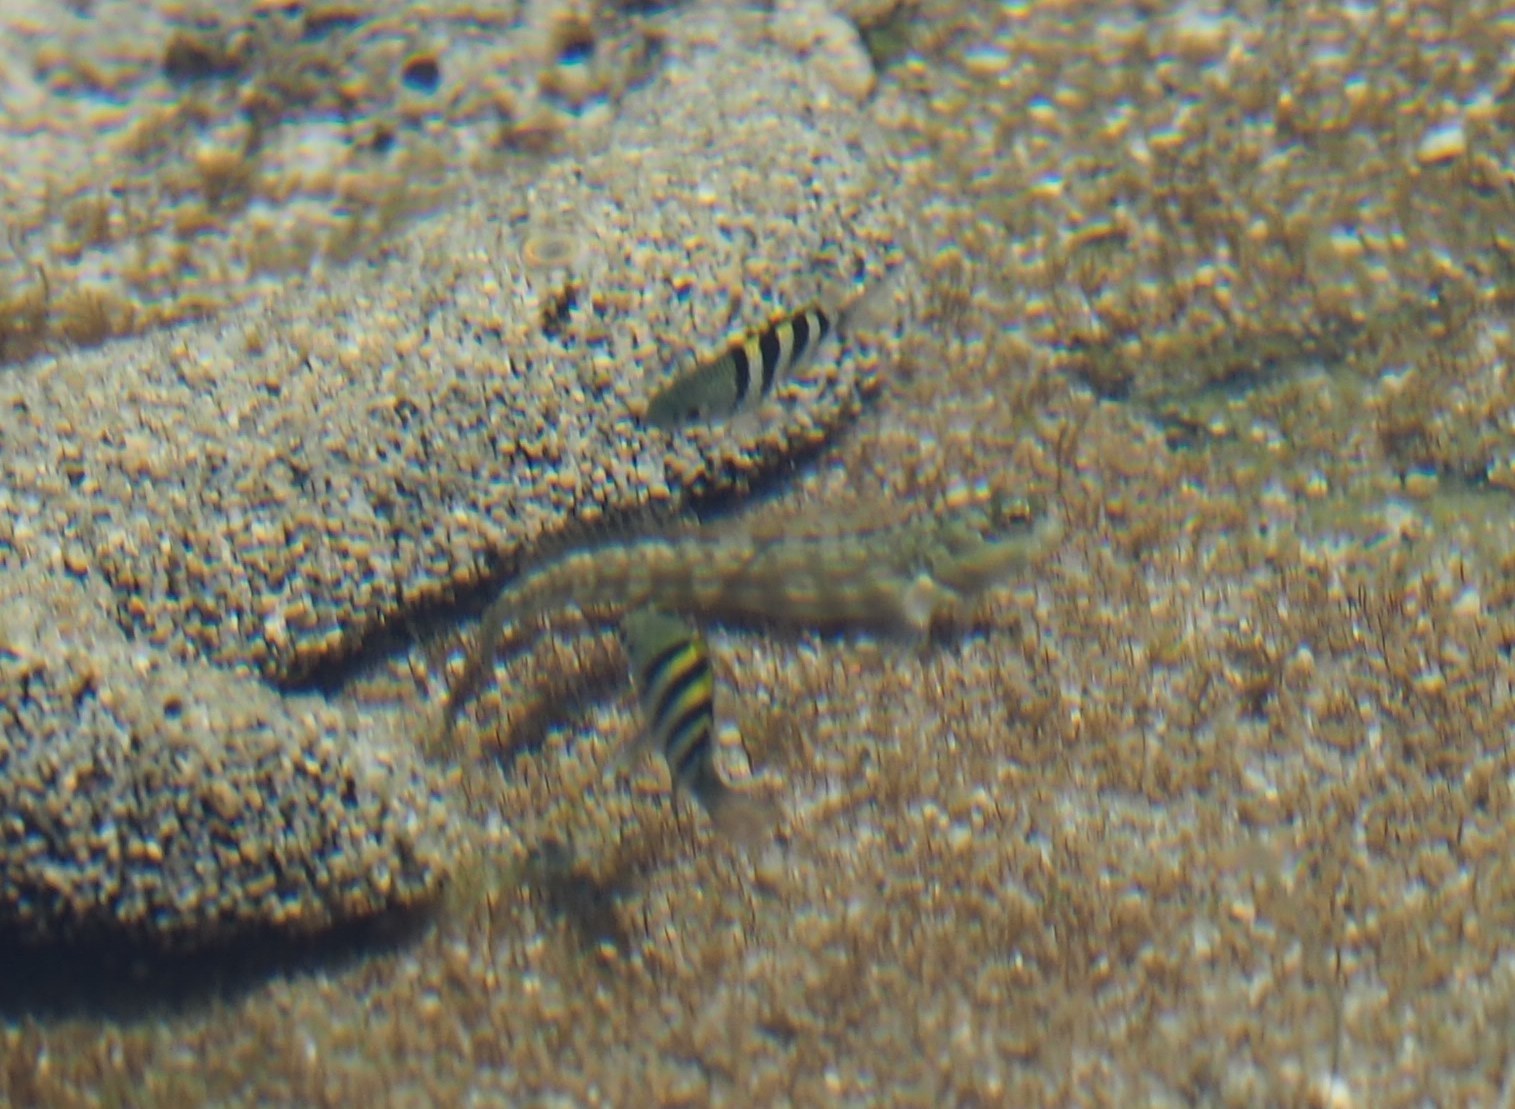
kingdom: Animalia
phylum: Chordata
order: Perciformes
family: Pomacentridae
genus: Abudefduf
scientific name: Abudefduf vaigiensis
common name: Indo-pacific sergeant
